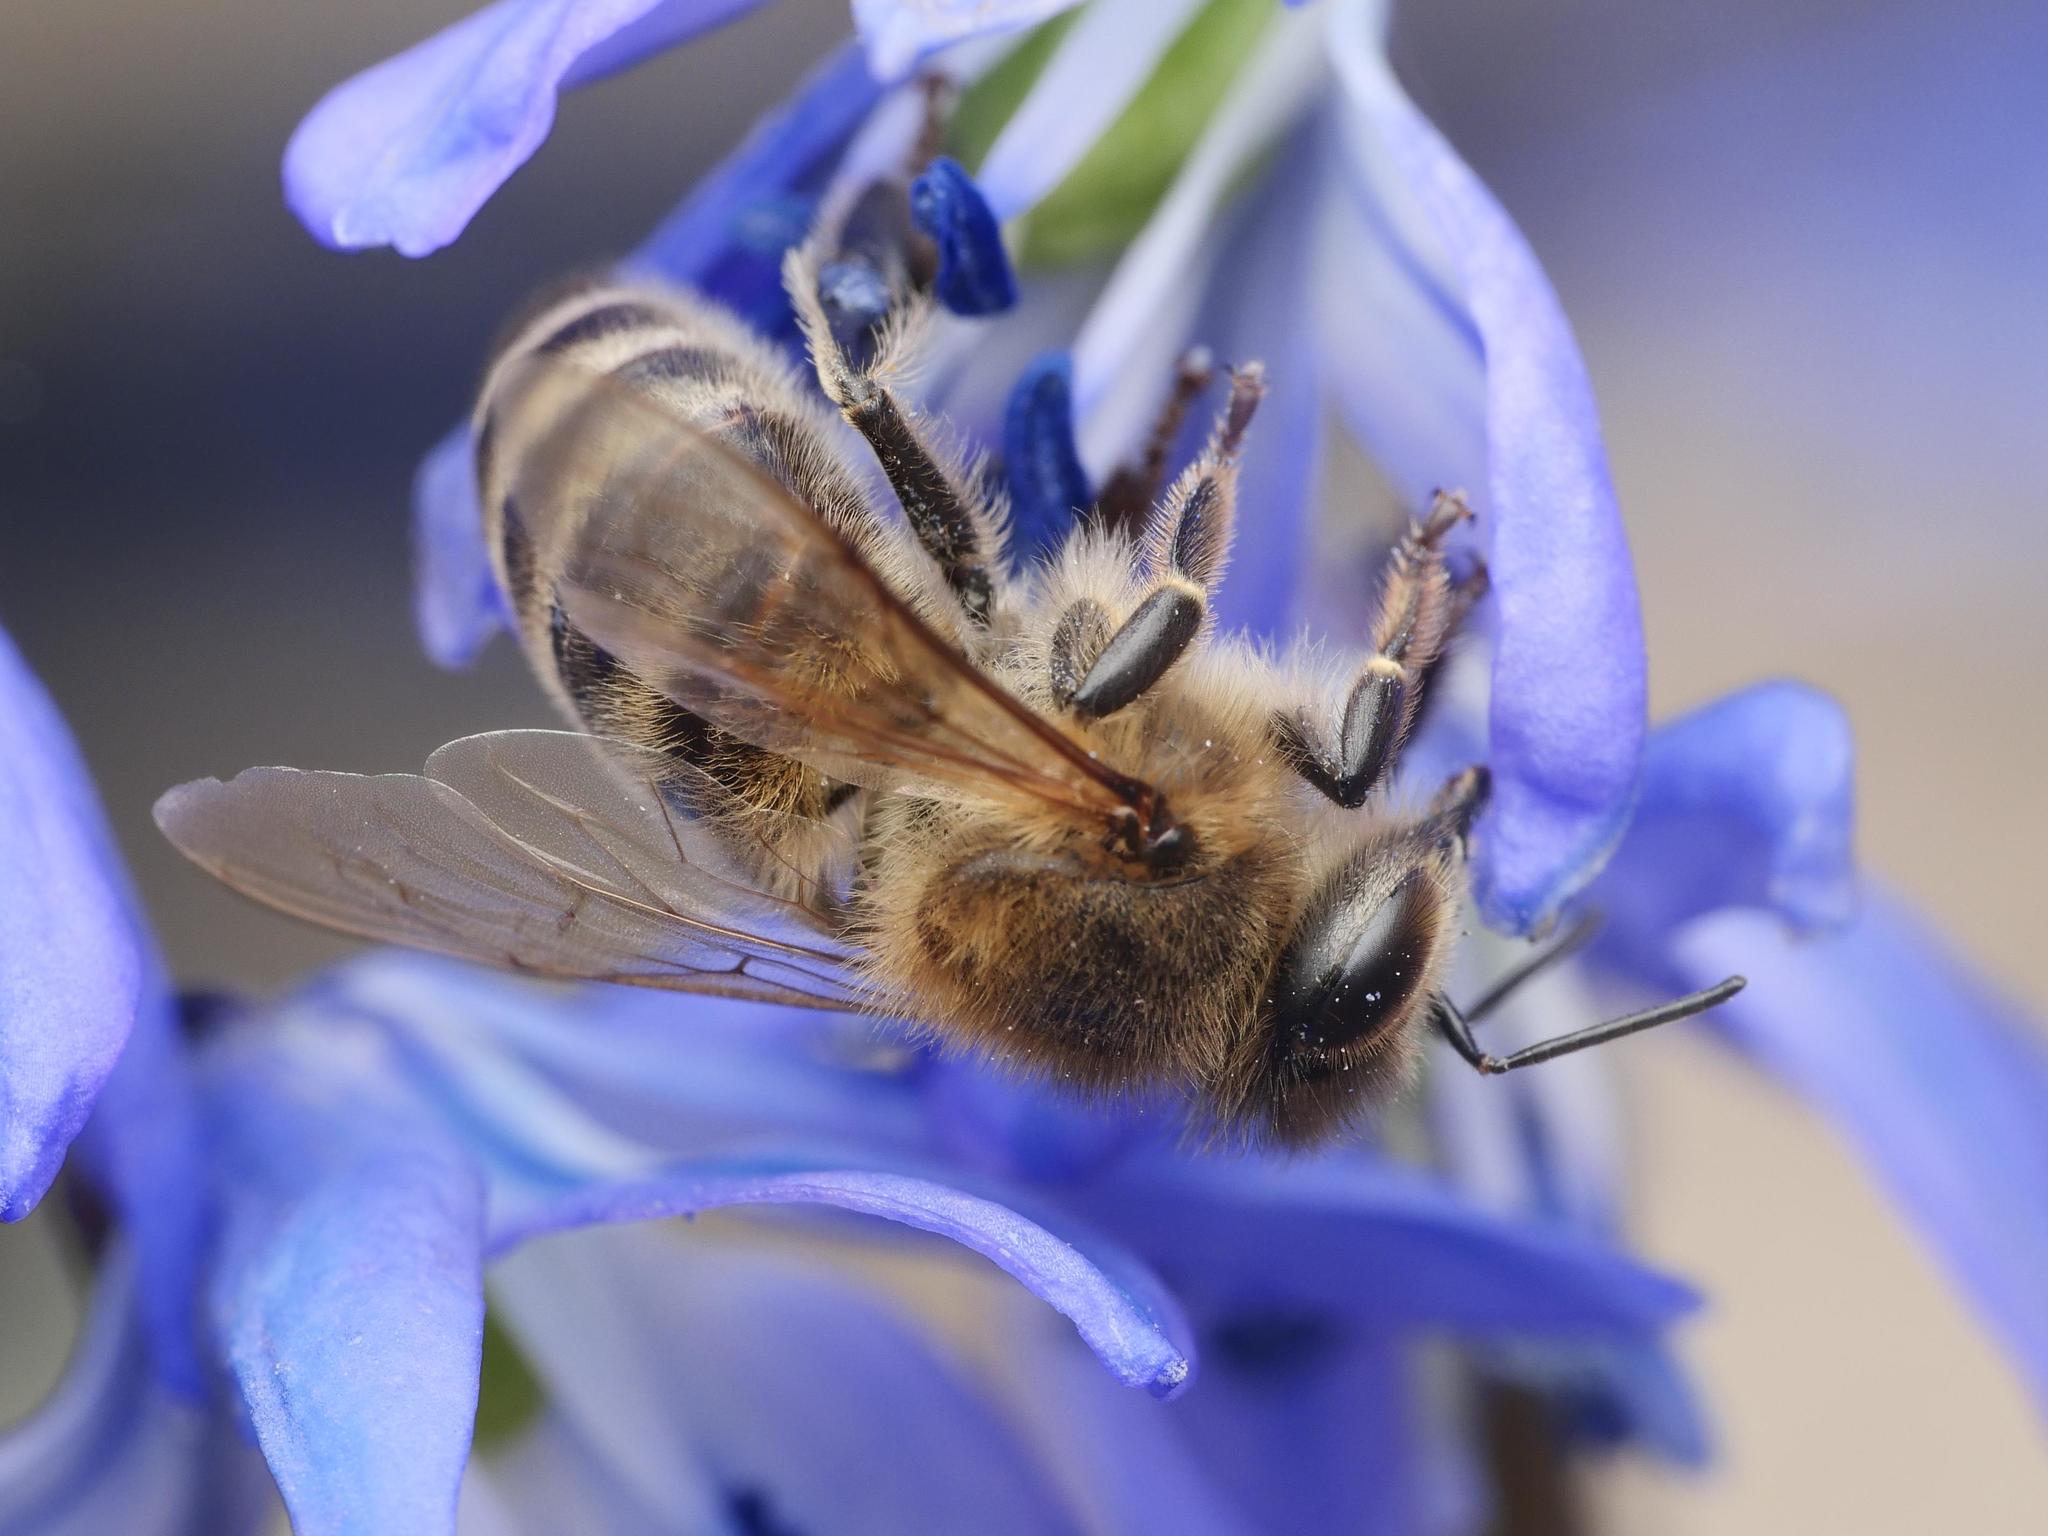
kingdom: Animalia
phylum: Arthropoda
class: Insecta
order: Hymenoptera
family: Apidae
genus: Apis
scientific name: Apis mellifera
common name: Honey bee
